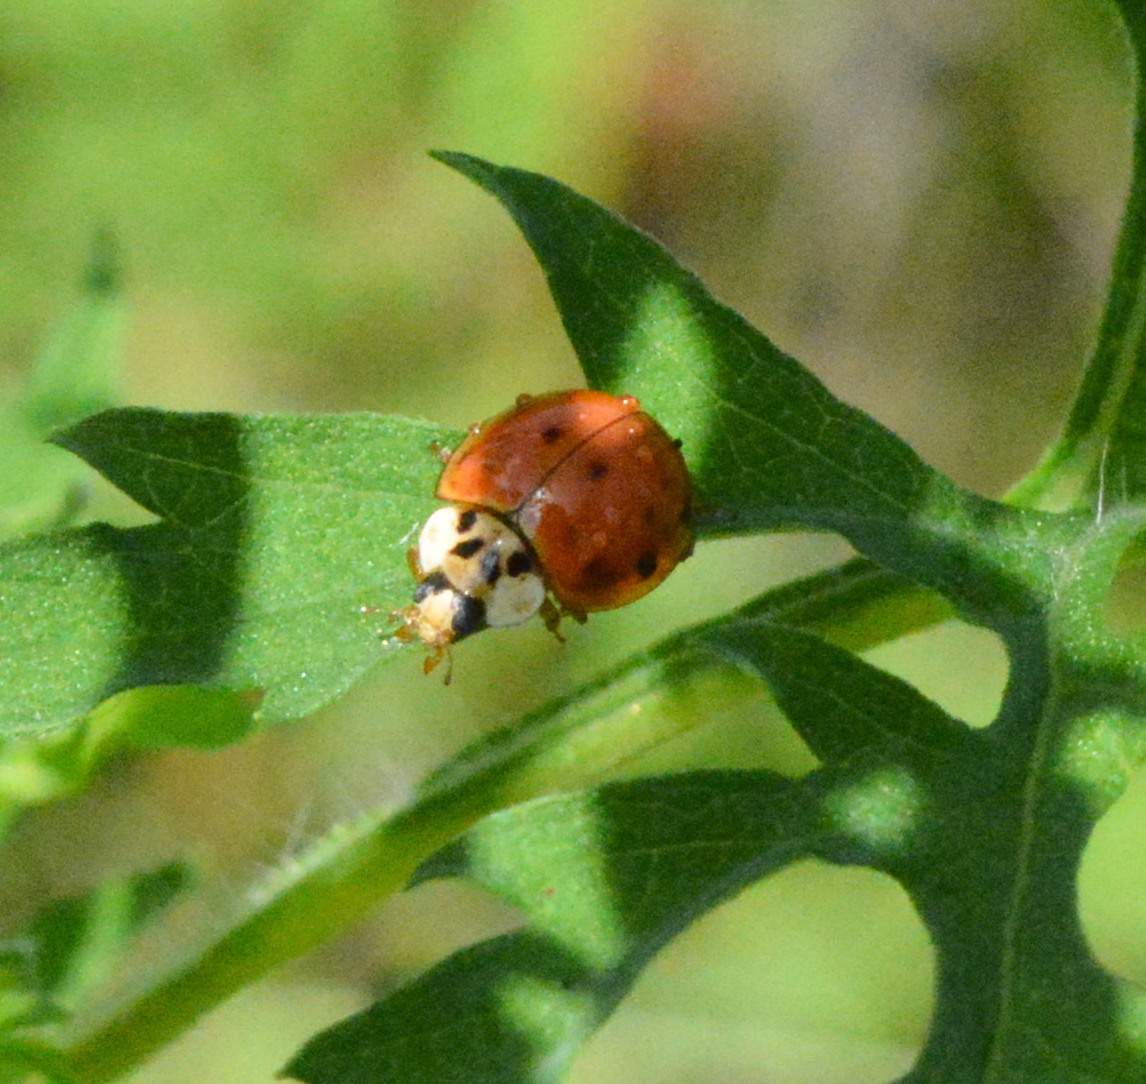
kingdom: Animalia
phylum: Arthropoda
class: Insecta
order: Coleoptera
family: Coccinellidae
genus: Harmonia
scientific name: Harmonia axyridis
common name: Harlequin ladybird
